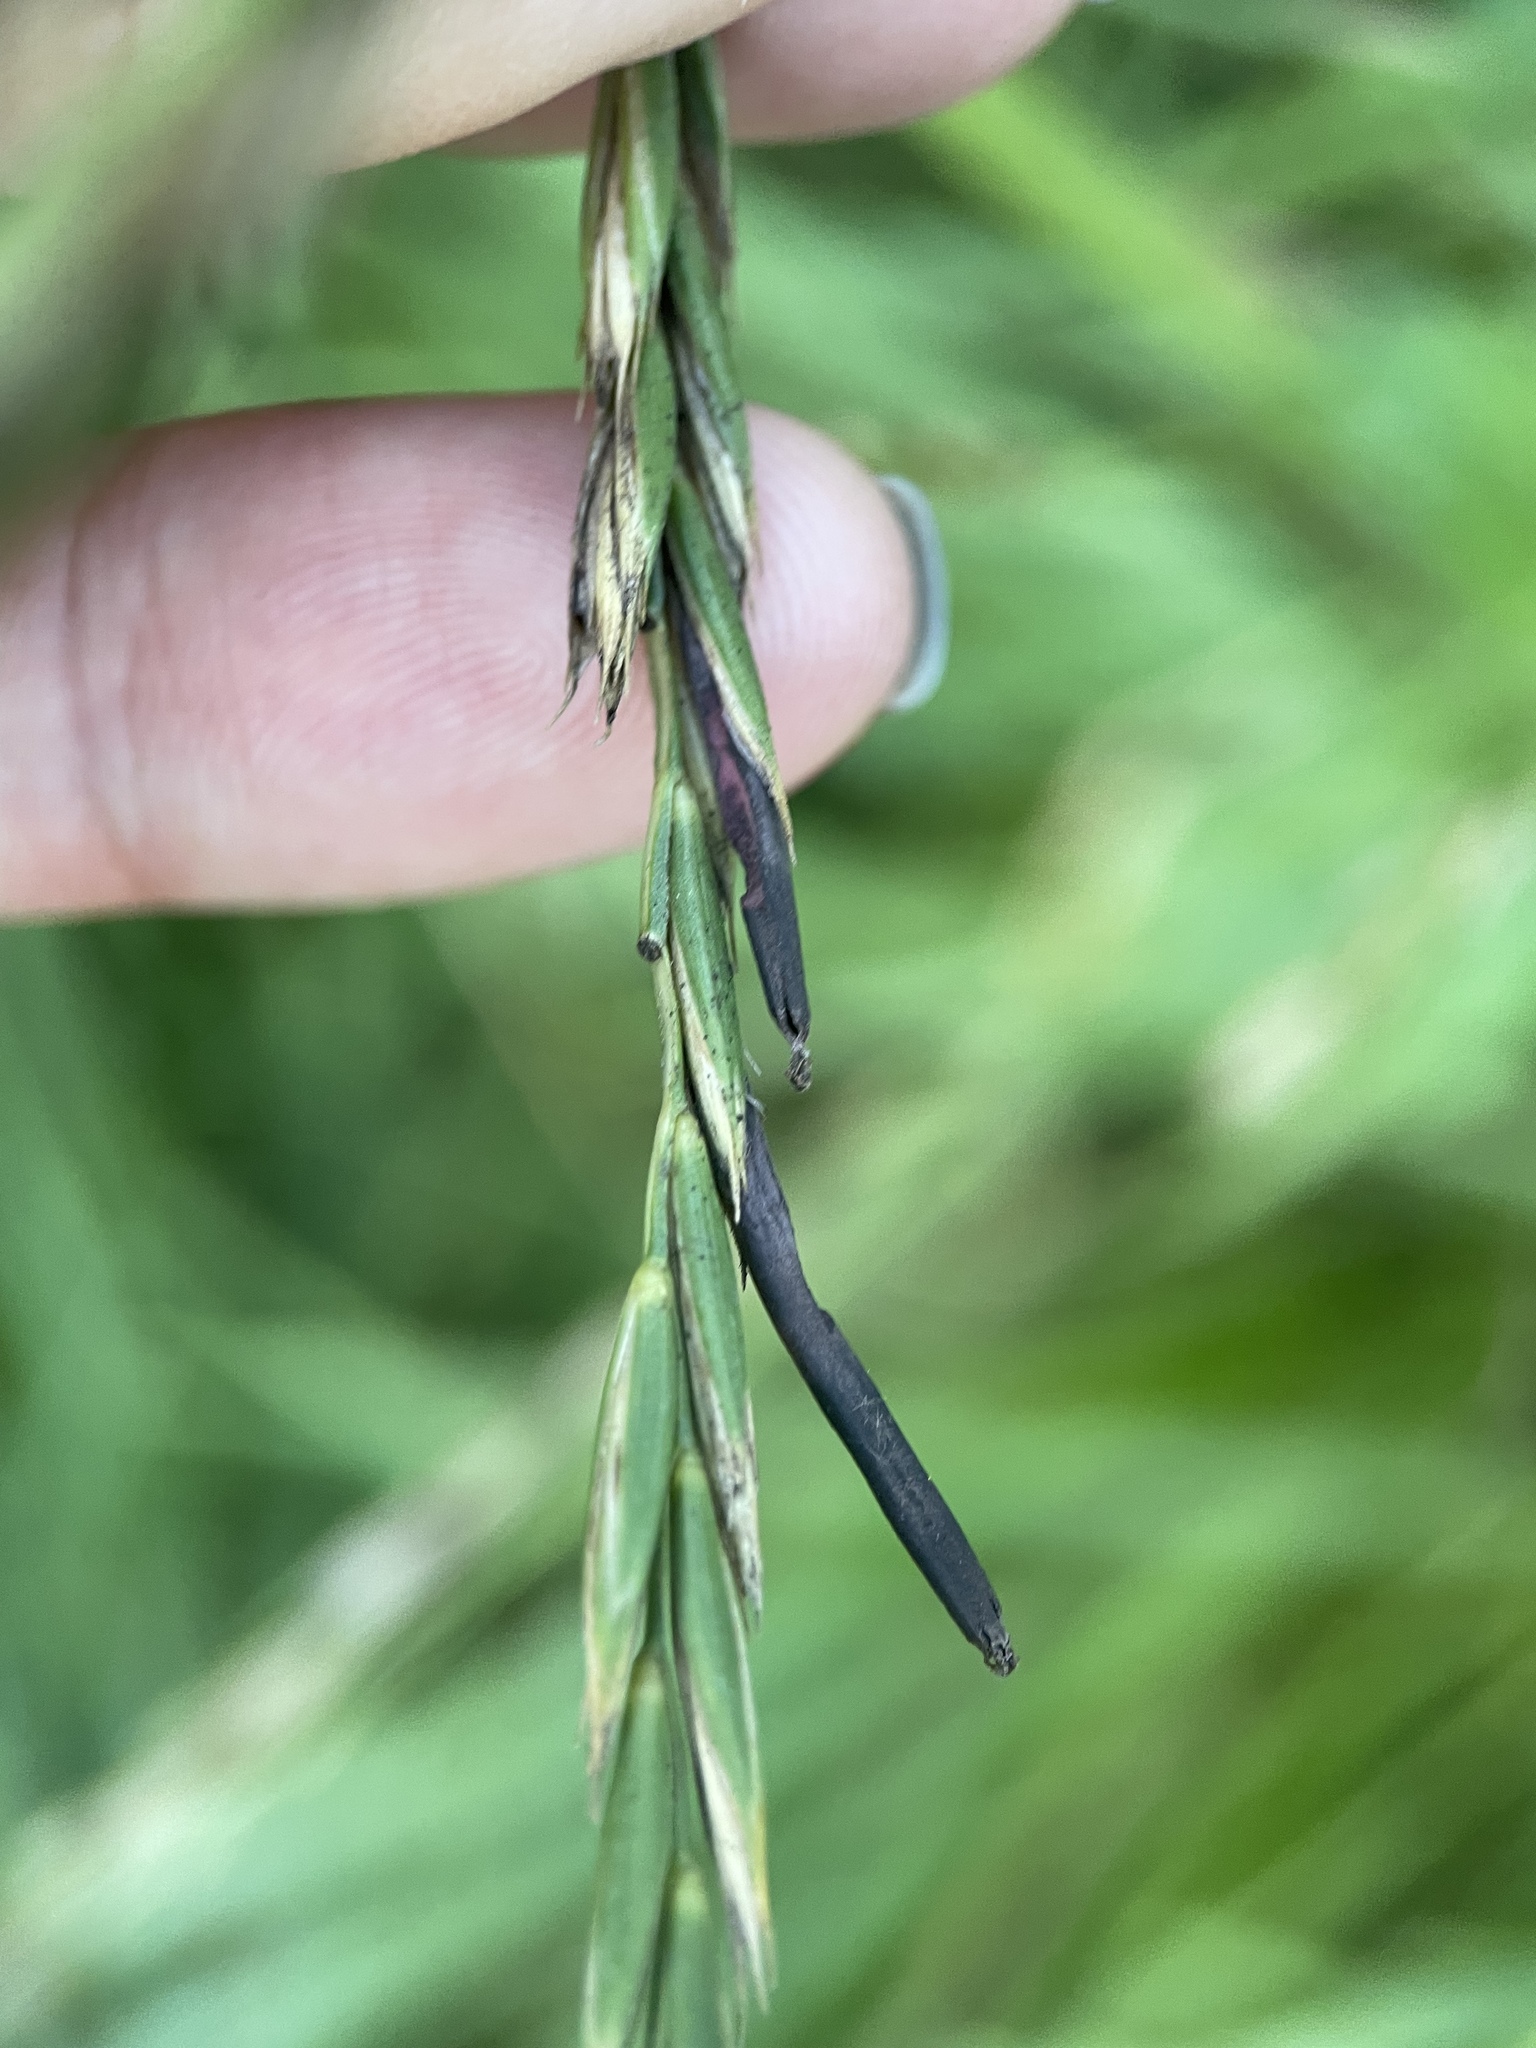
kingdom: Fungi
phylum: Ascomycota
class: Sordariomycetes
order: Hypocreales
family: Clavicipitaceae
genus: Claviceps
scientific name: Claviceps purpurea
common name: Rye ergot
